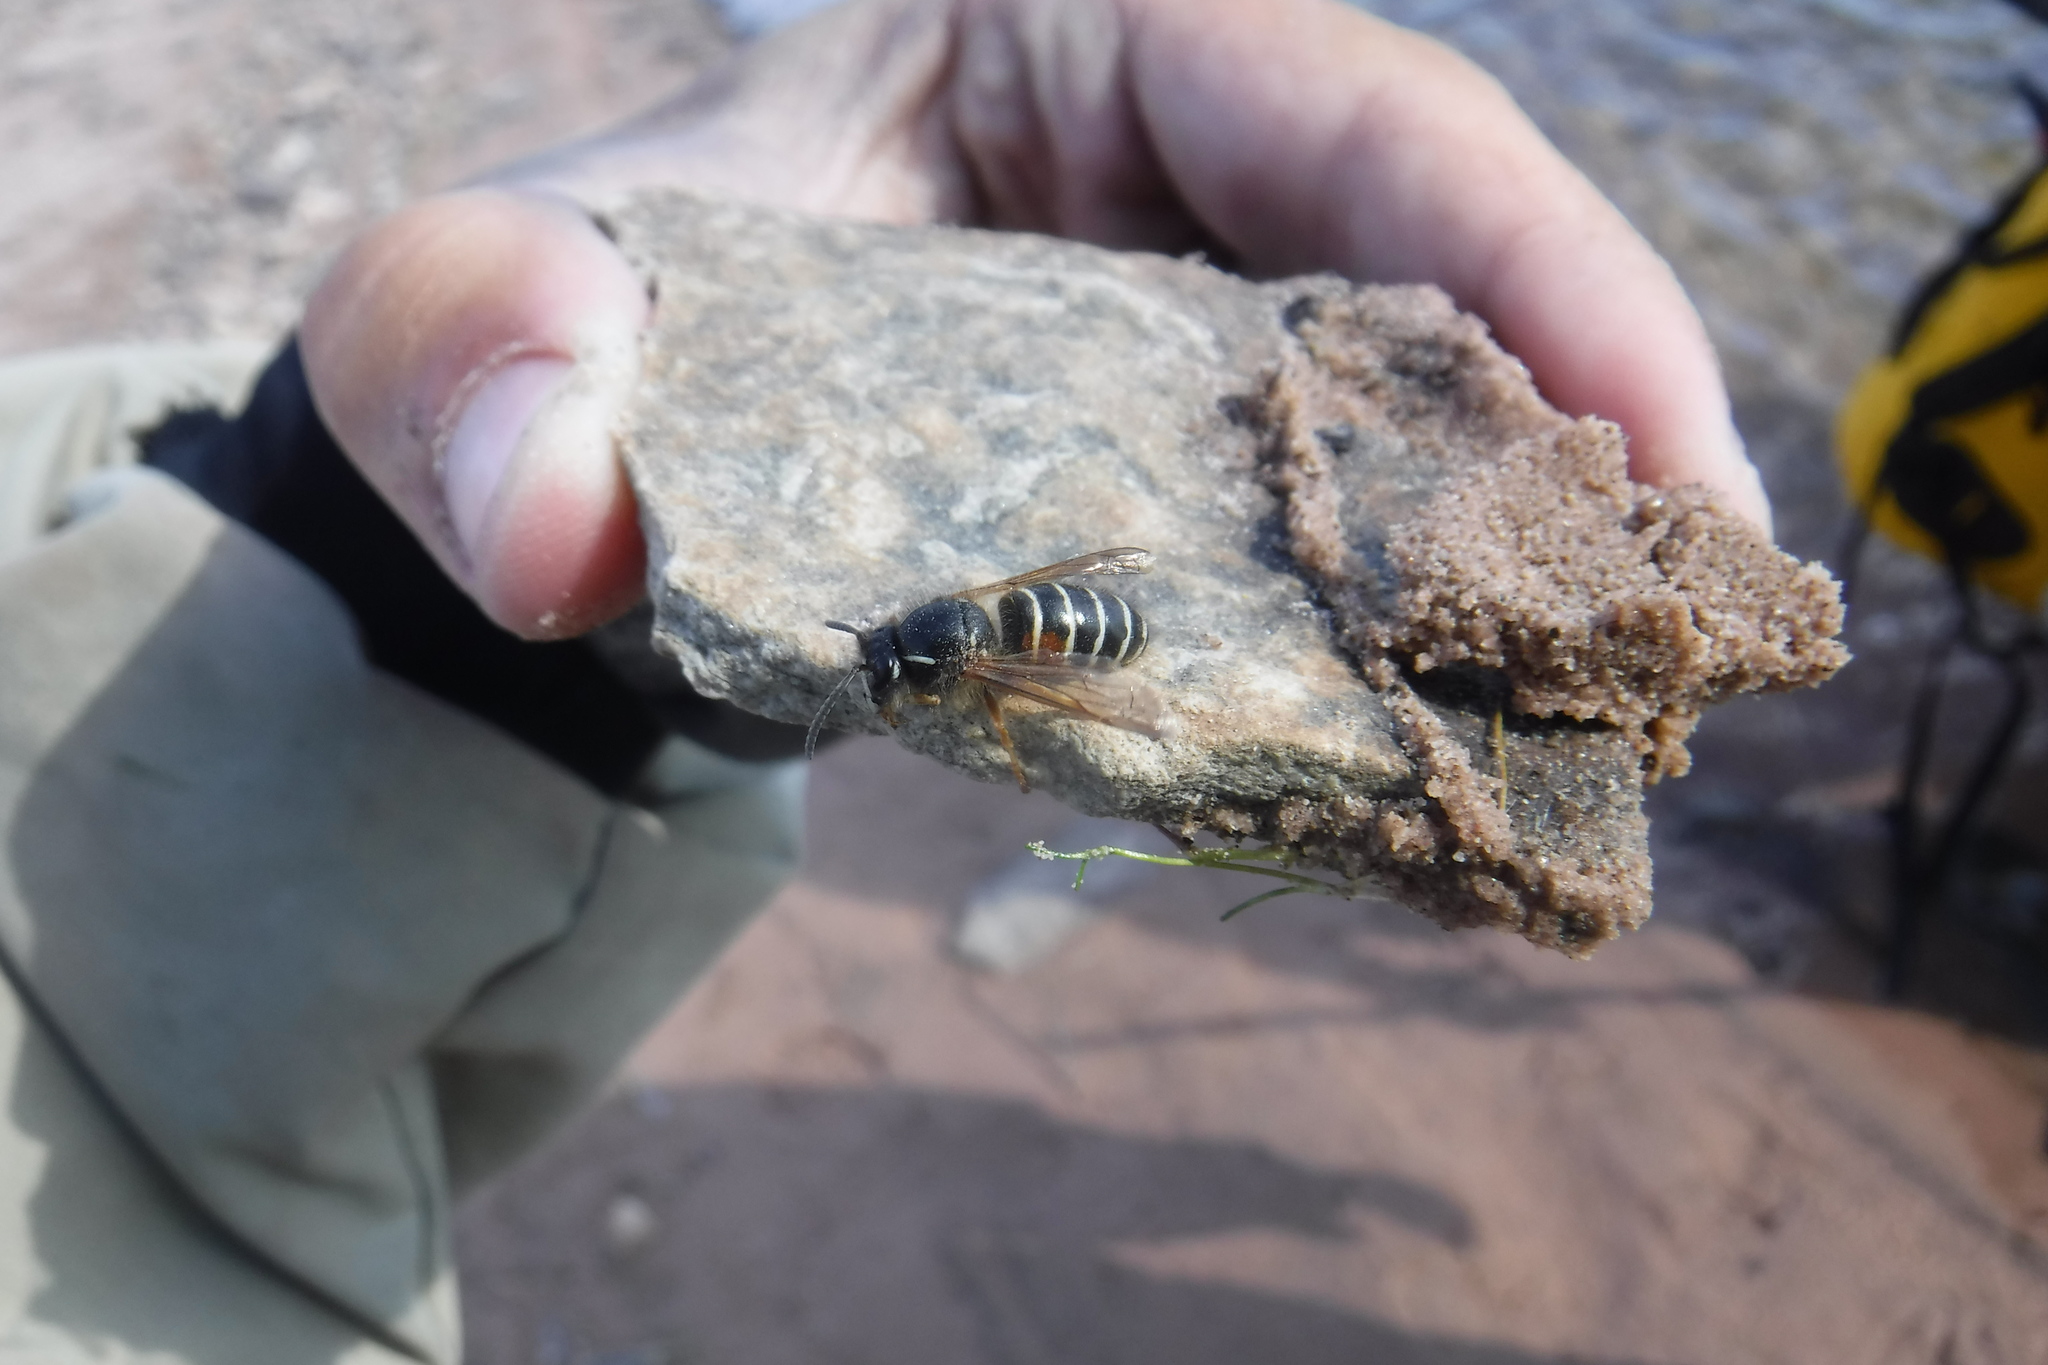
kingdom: Animalia
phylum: Arthropoda
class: Insecta
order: Hymenoptera
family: Vespidae
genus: Dolichovespula
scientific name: Dolichovespula norwegica
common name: Norwegian wasp
